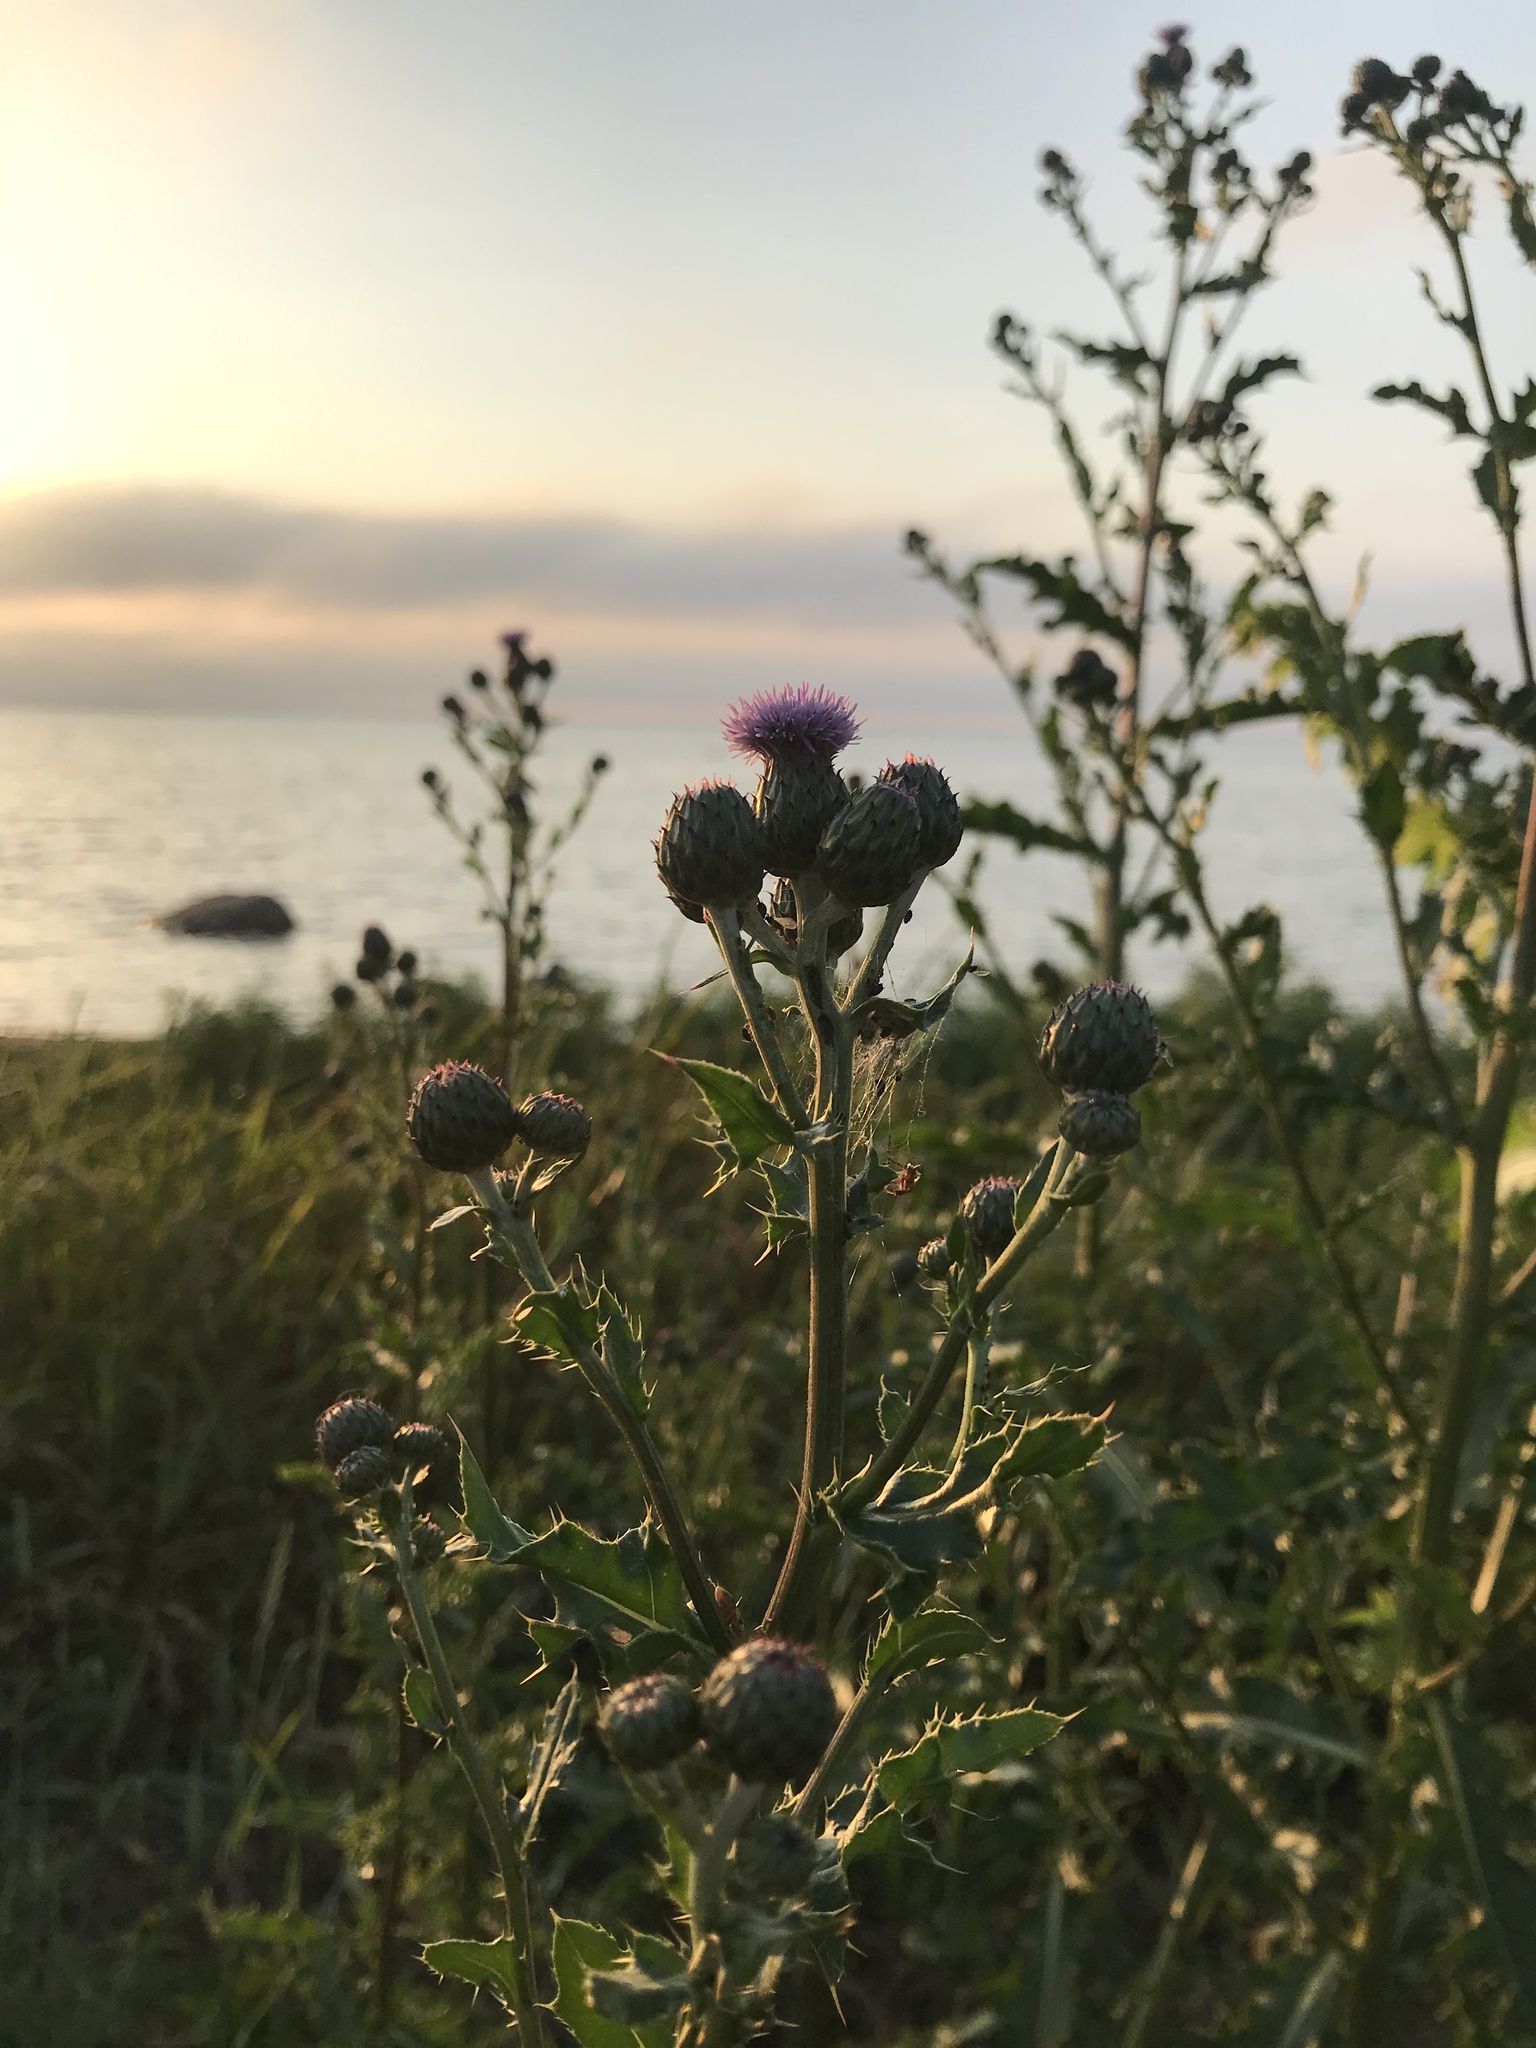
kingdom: Plantae
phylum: Tracheophyta
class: Magnoliopsida
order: Asterales
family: Asteraceae
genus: Cirsium
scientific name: Cirsium arvense
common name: Creeping thistle
